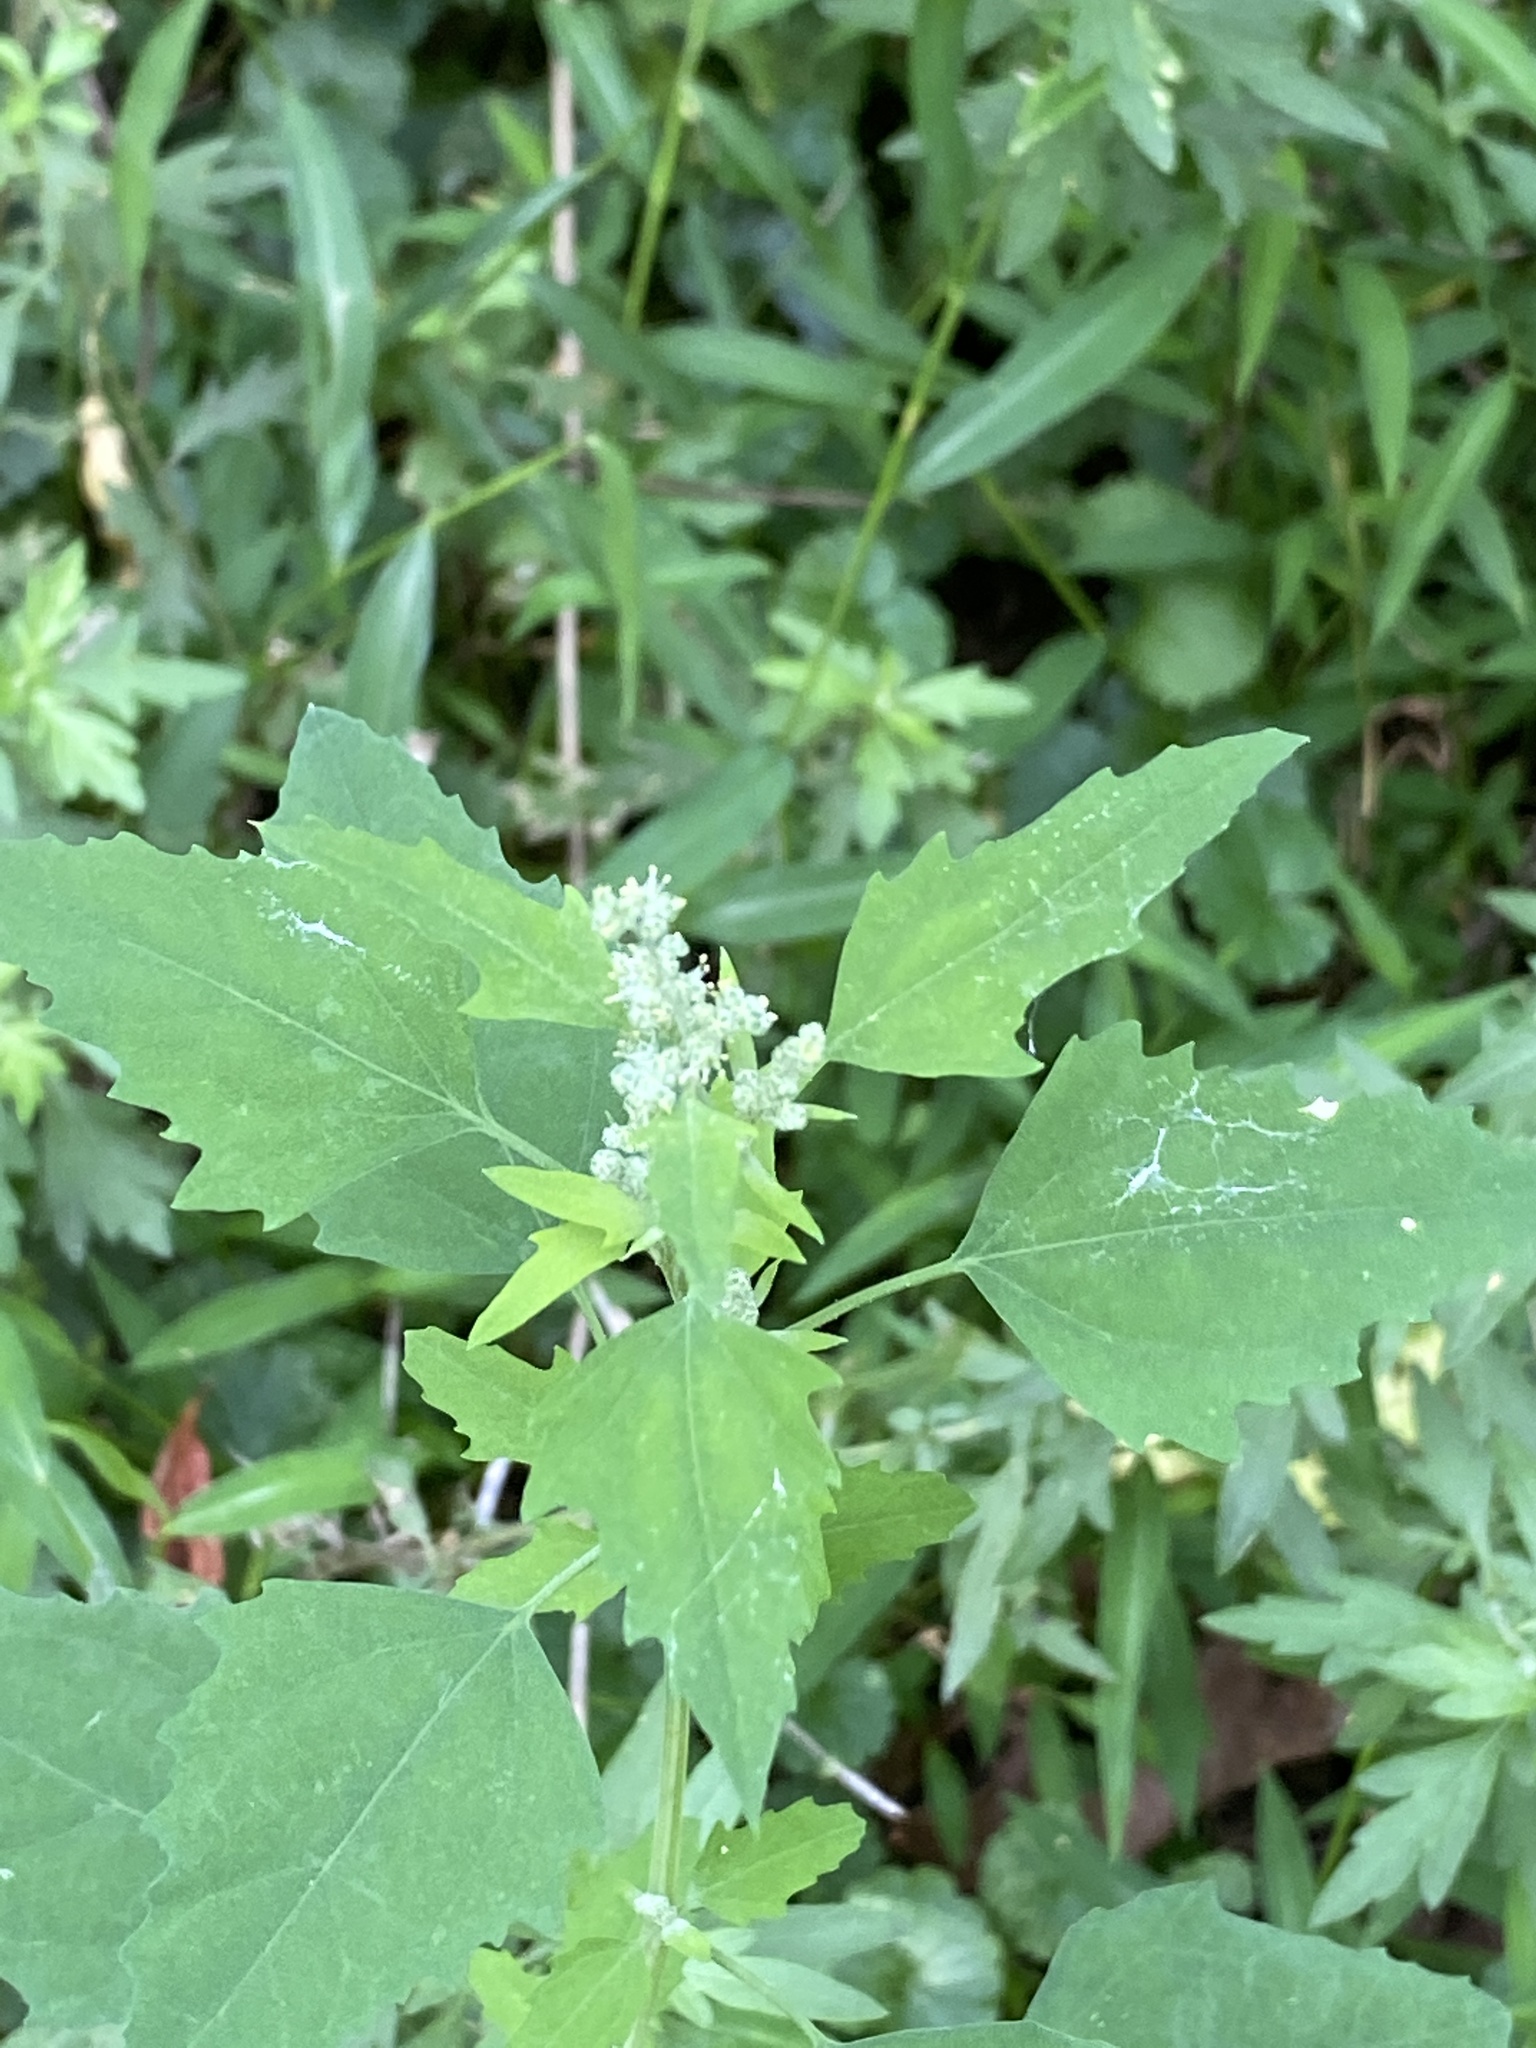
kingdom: Plantae
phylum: Tracheophyta
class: Magnoliopsida
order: Caryophyllales
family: Amaranthaceae
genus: Chenopodium
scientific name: Chenopodium album
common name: Fat-hen
